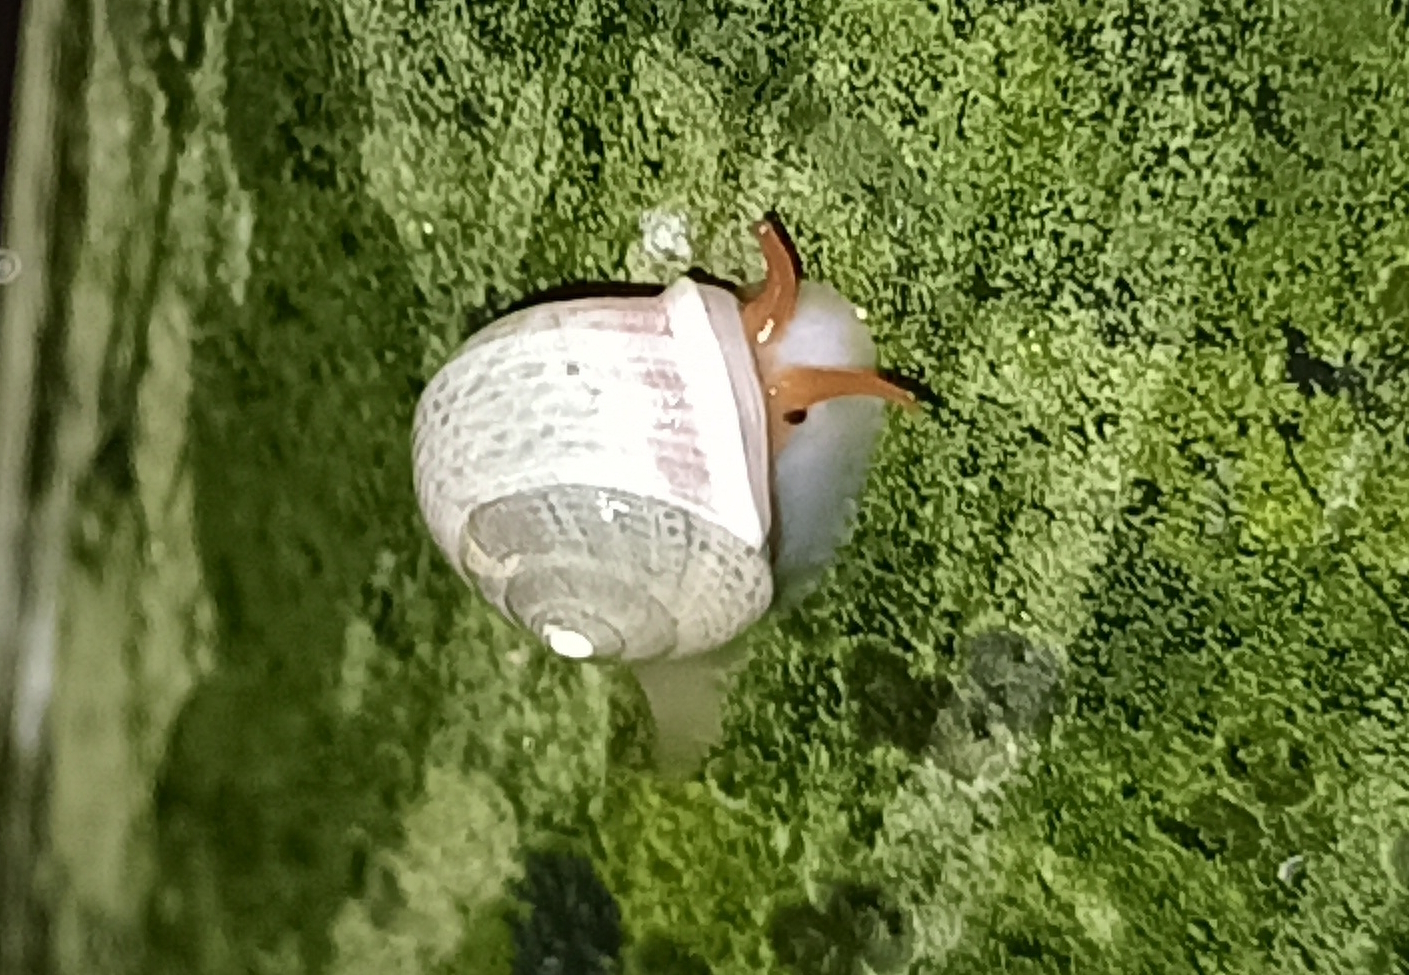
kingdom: Animalia
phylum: Mollusca
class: Gastropoda
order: Cycloneritida
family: Helicinidae
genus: Helicina
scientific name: Helicina boettgeri
